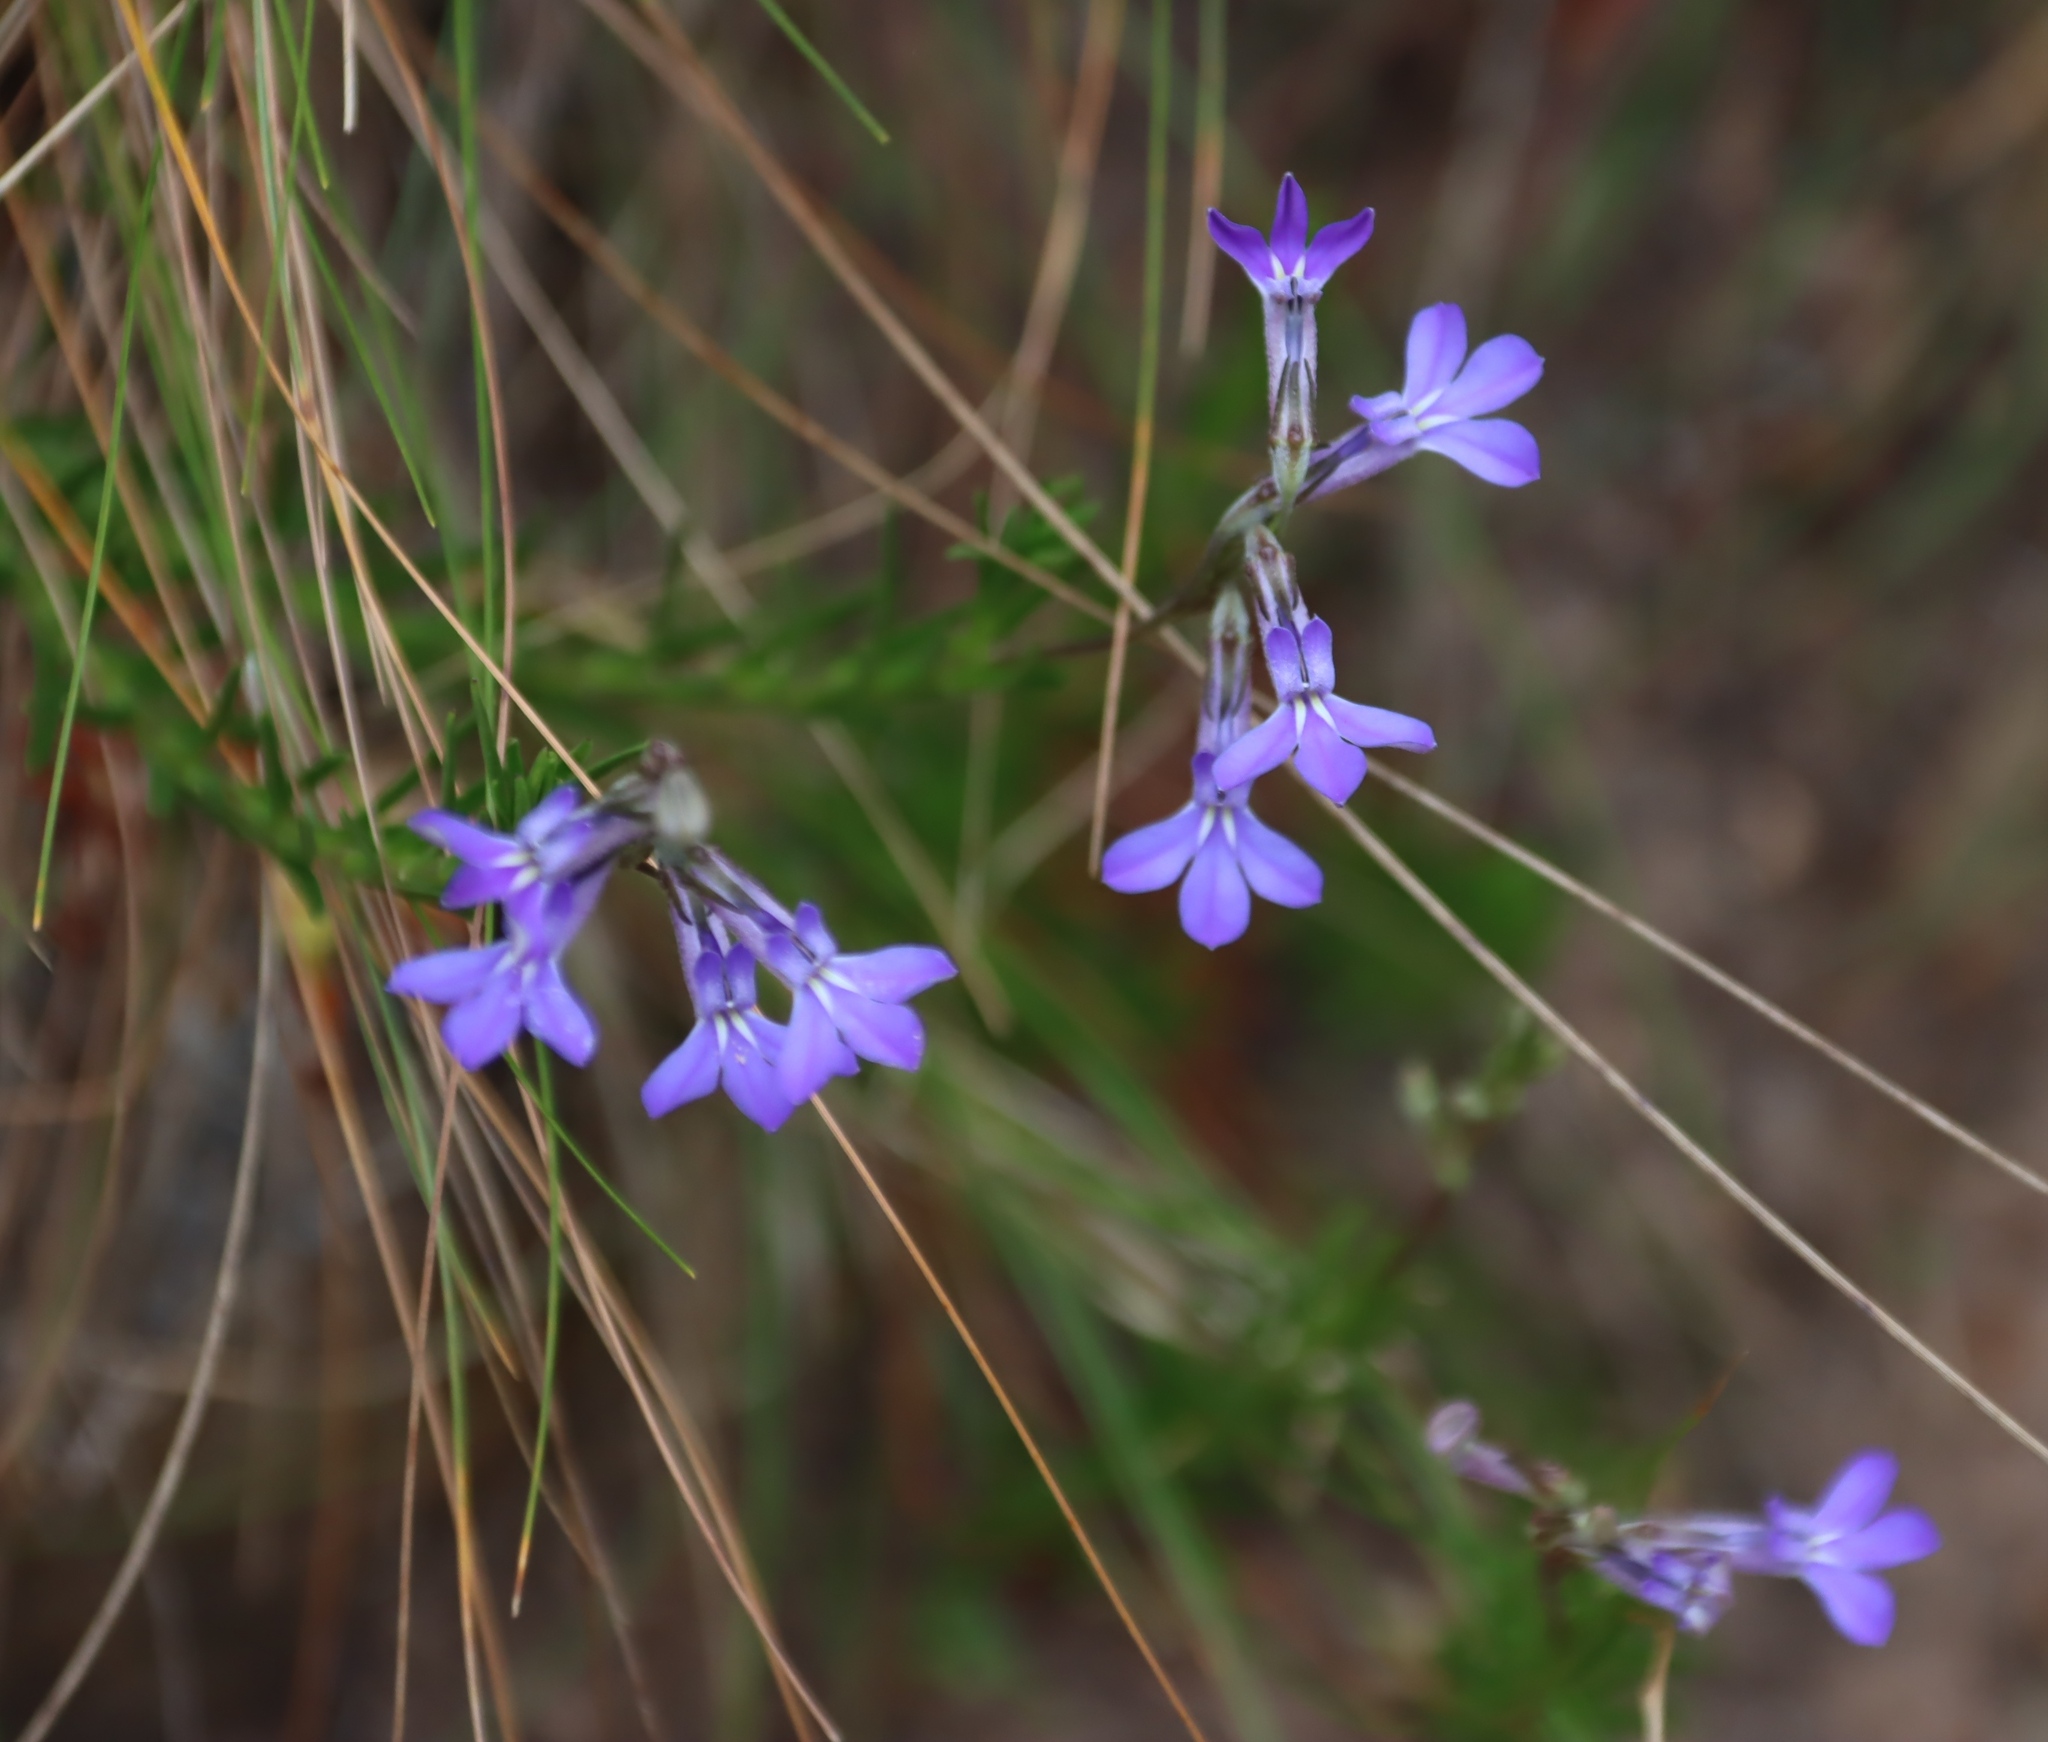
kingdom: Plantae
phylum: Tracheophyta
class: Magnoliopsida
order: Asterales
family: Campanulaceae
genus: Lobelia
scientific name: Lobelia pinifolia
